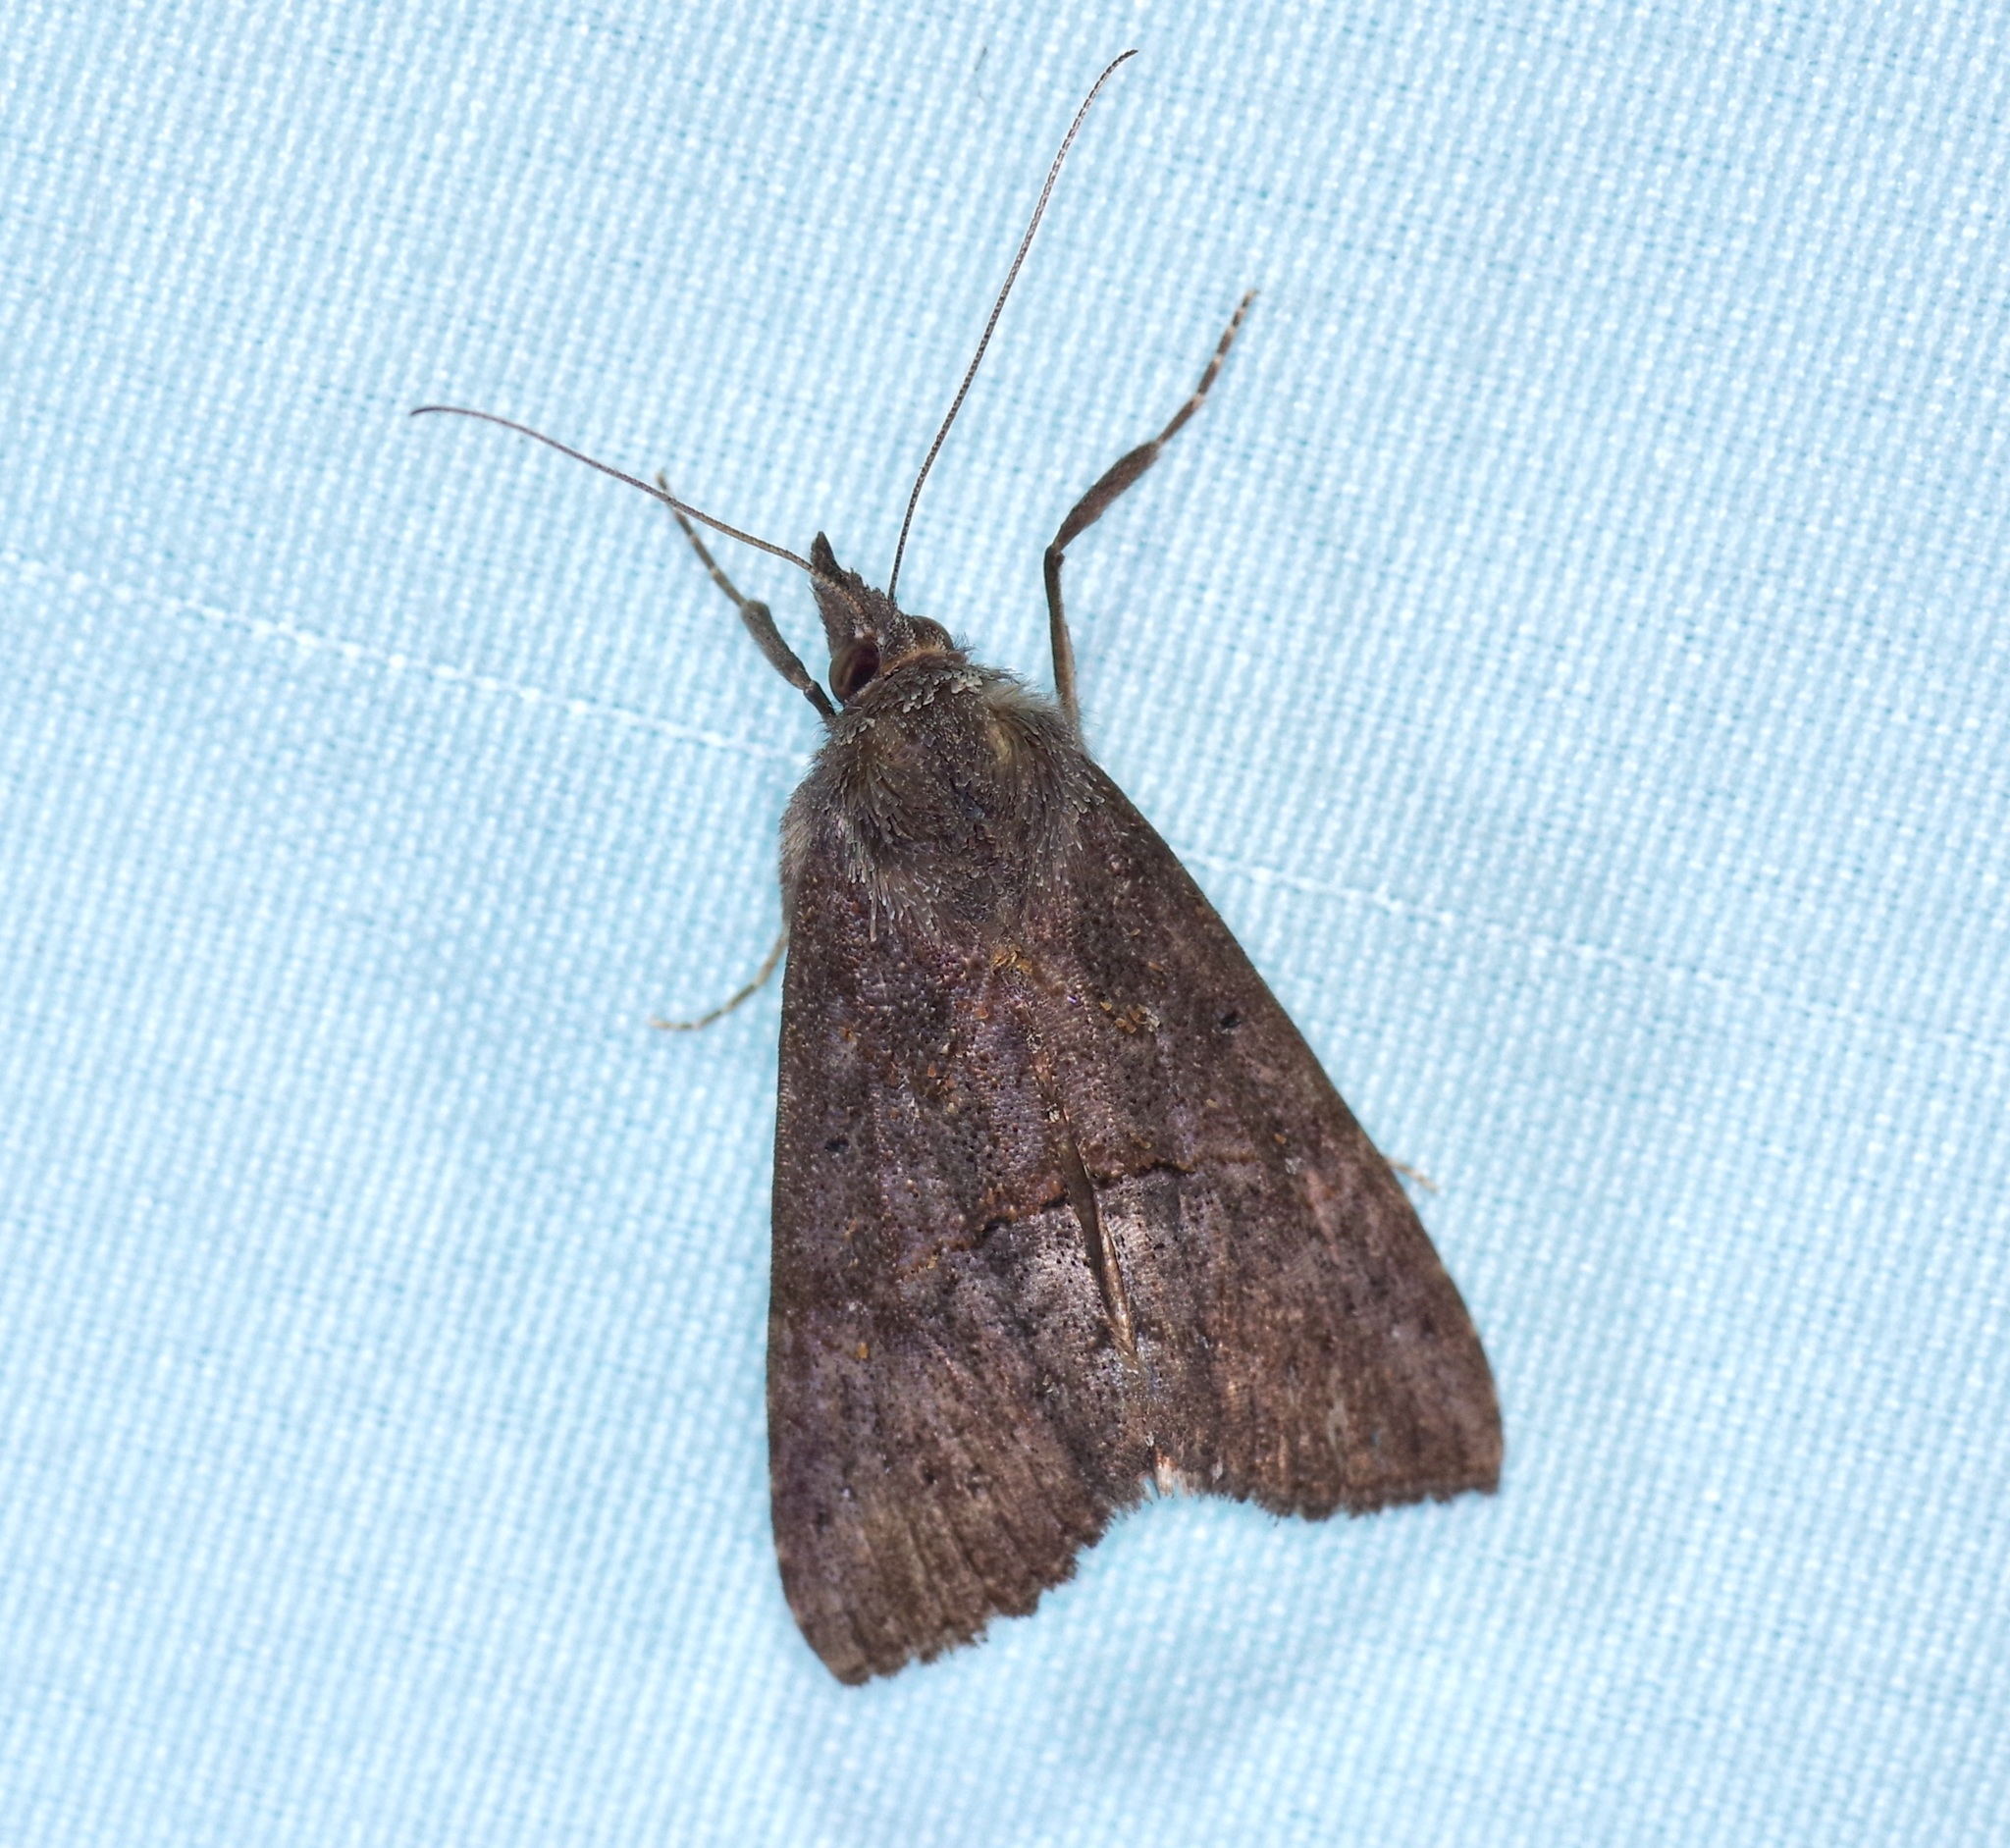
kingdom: Animalia
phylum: Arthropoda
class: Insecta
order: Lepidoptera
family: Erebidae
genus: Hypena
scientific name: Hypena scabra
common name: Green cloverworm
